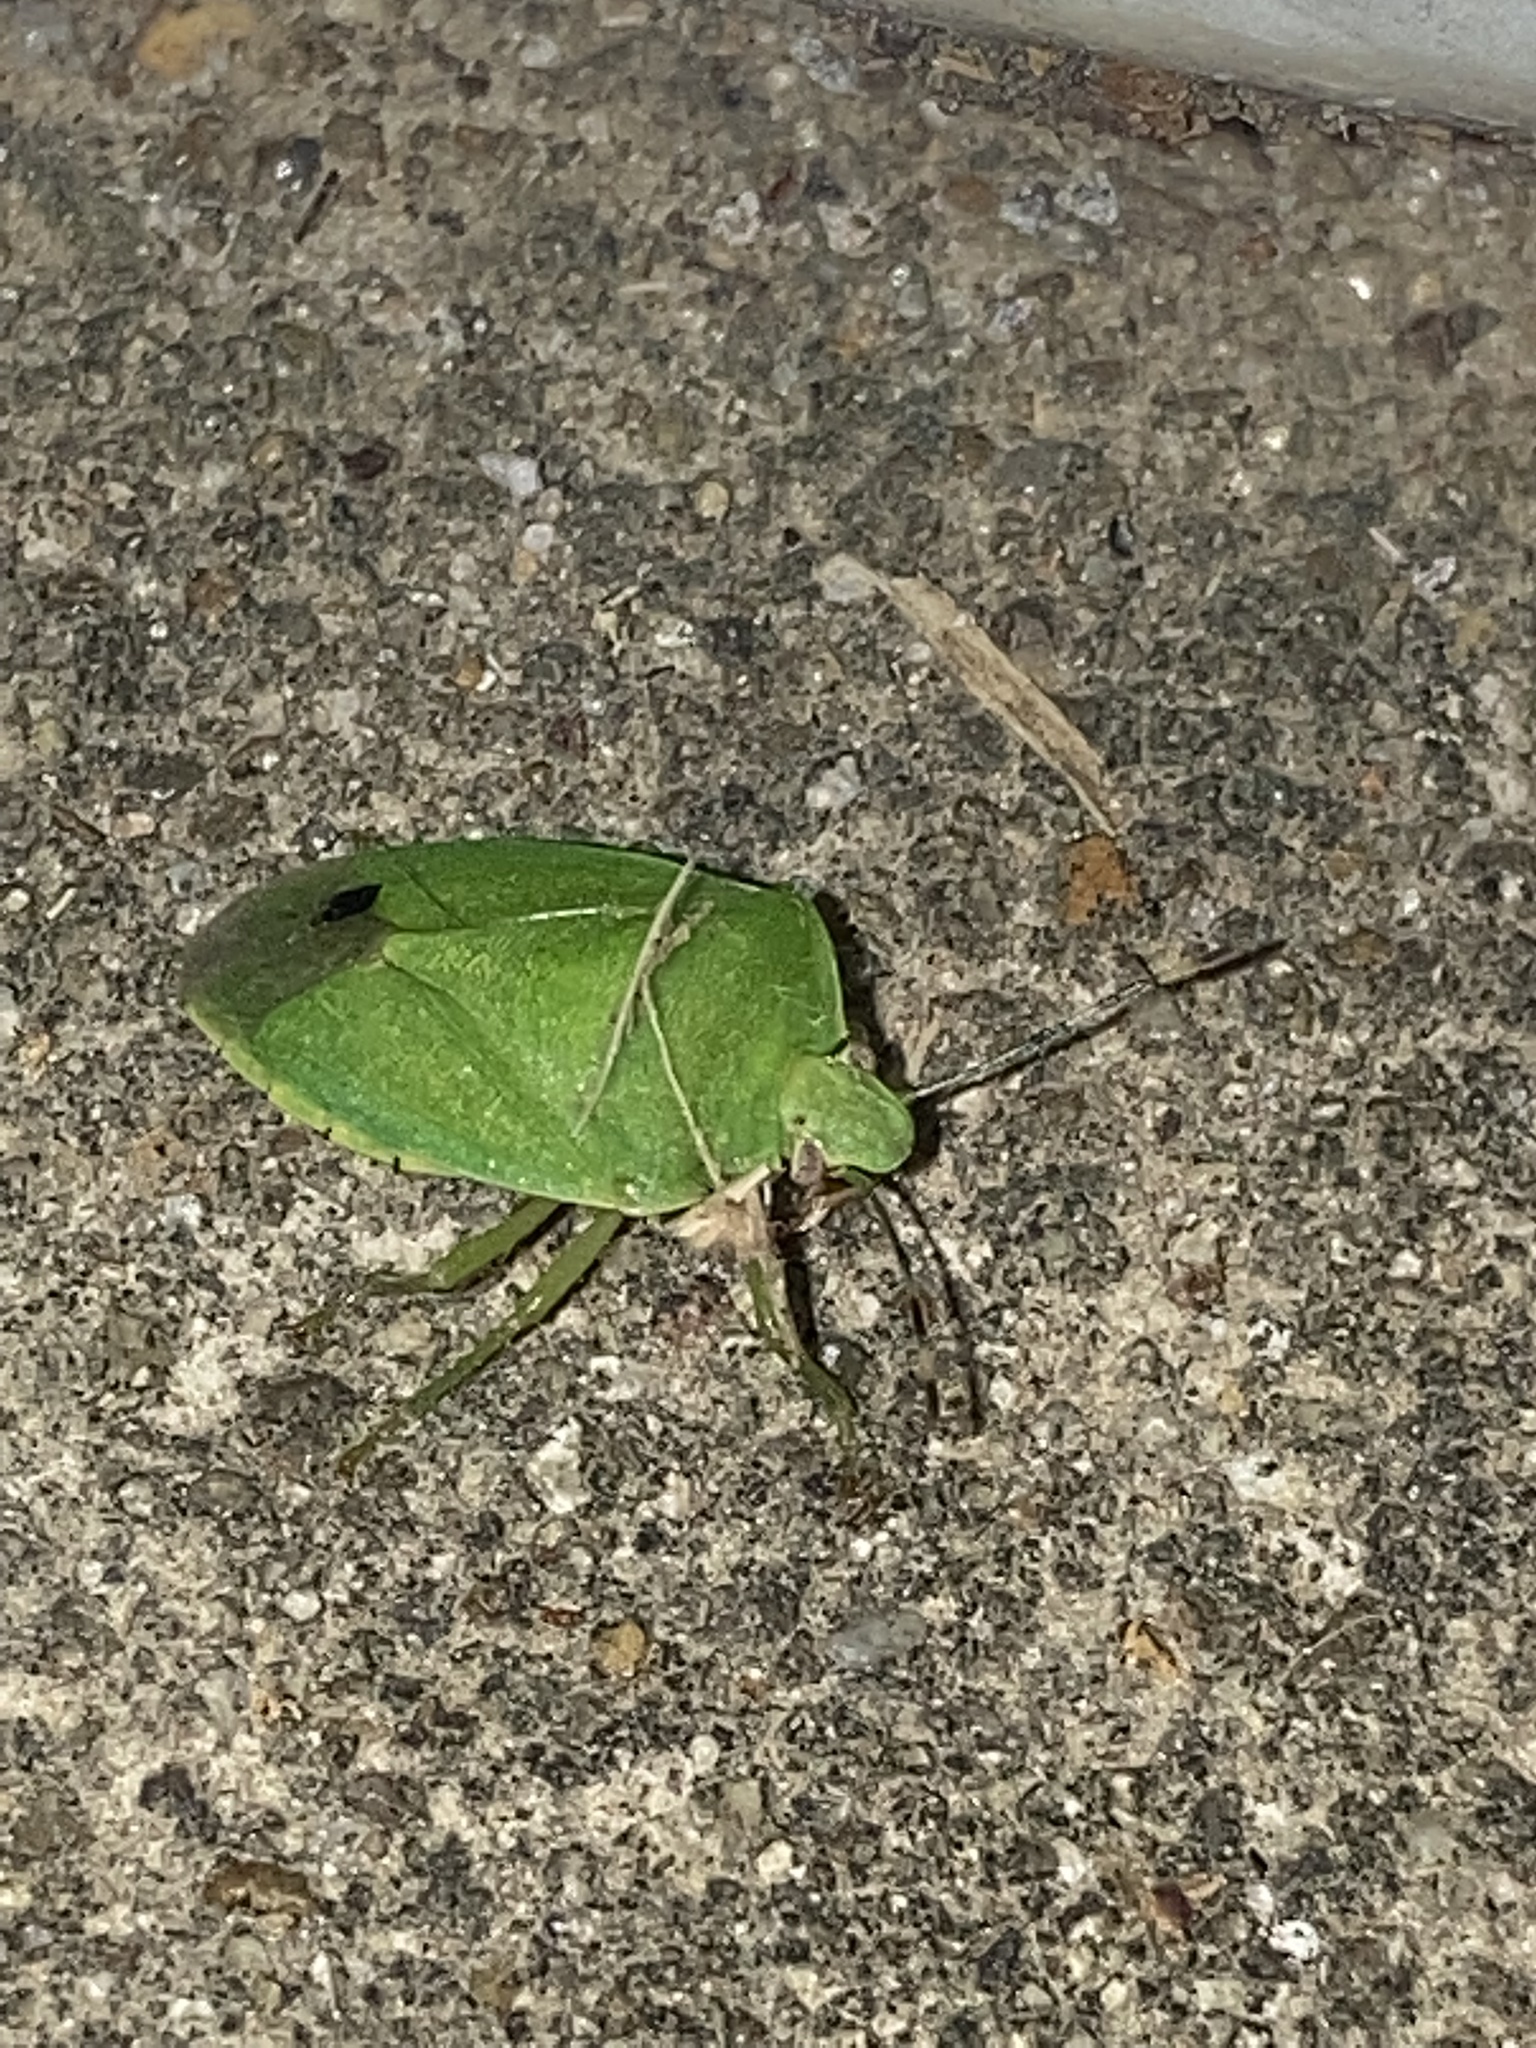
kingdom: Animalia
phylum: Arthropoda
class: Insecta
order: Hemiptera
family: Pentatomidae
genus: Chinavia
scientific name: Chinavia hilaris
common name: Green stink bug
